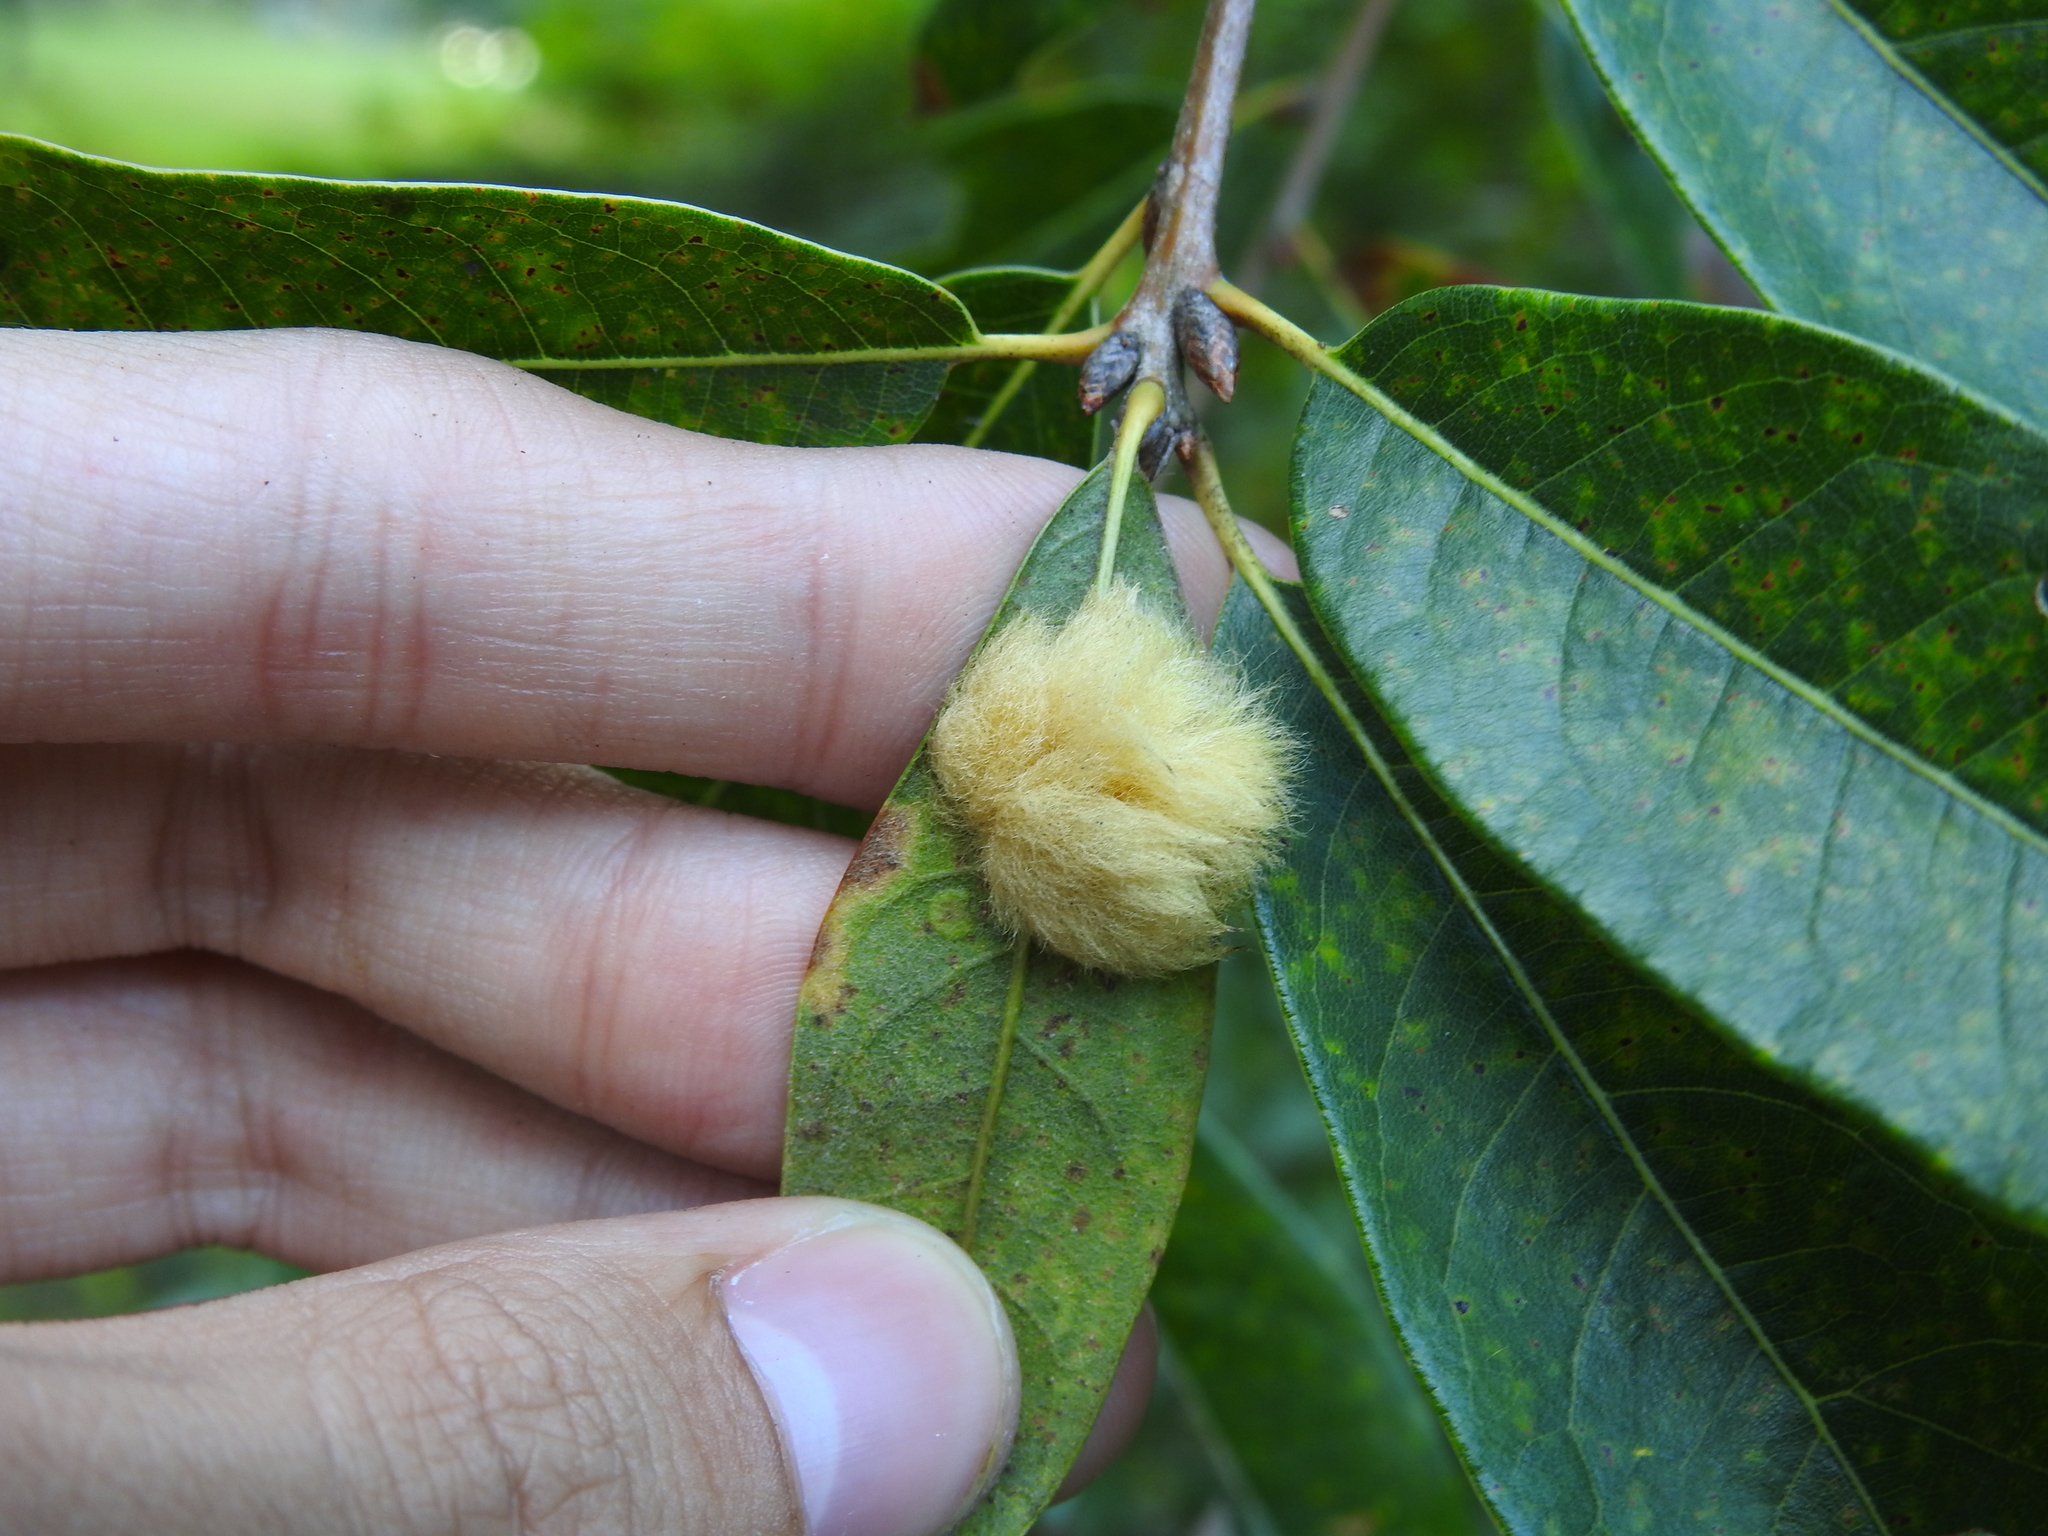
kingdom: Animalia
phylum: Arthropoda
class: Insecta
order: Hymenoptera
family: Cynipidae
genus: Neuroterus
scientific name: Neuroterus
